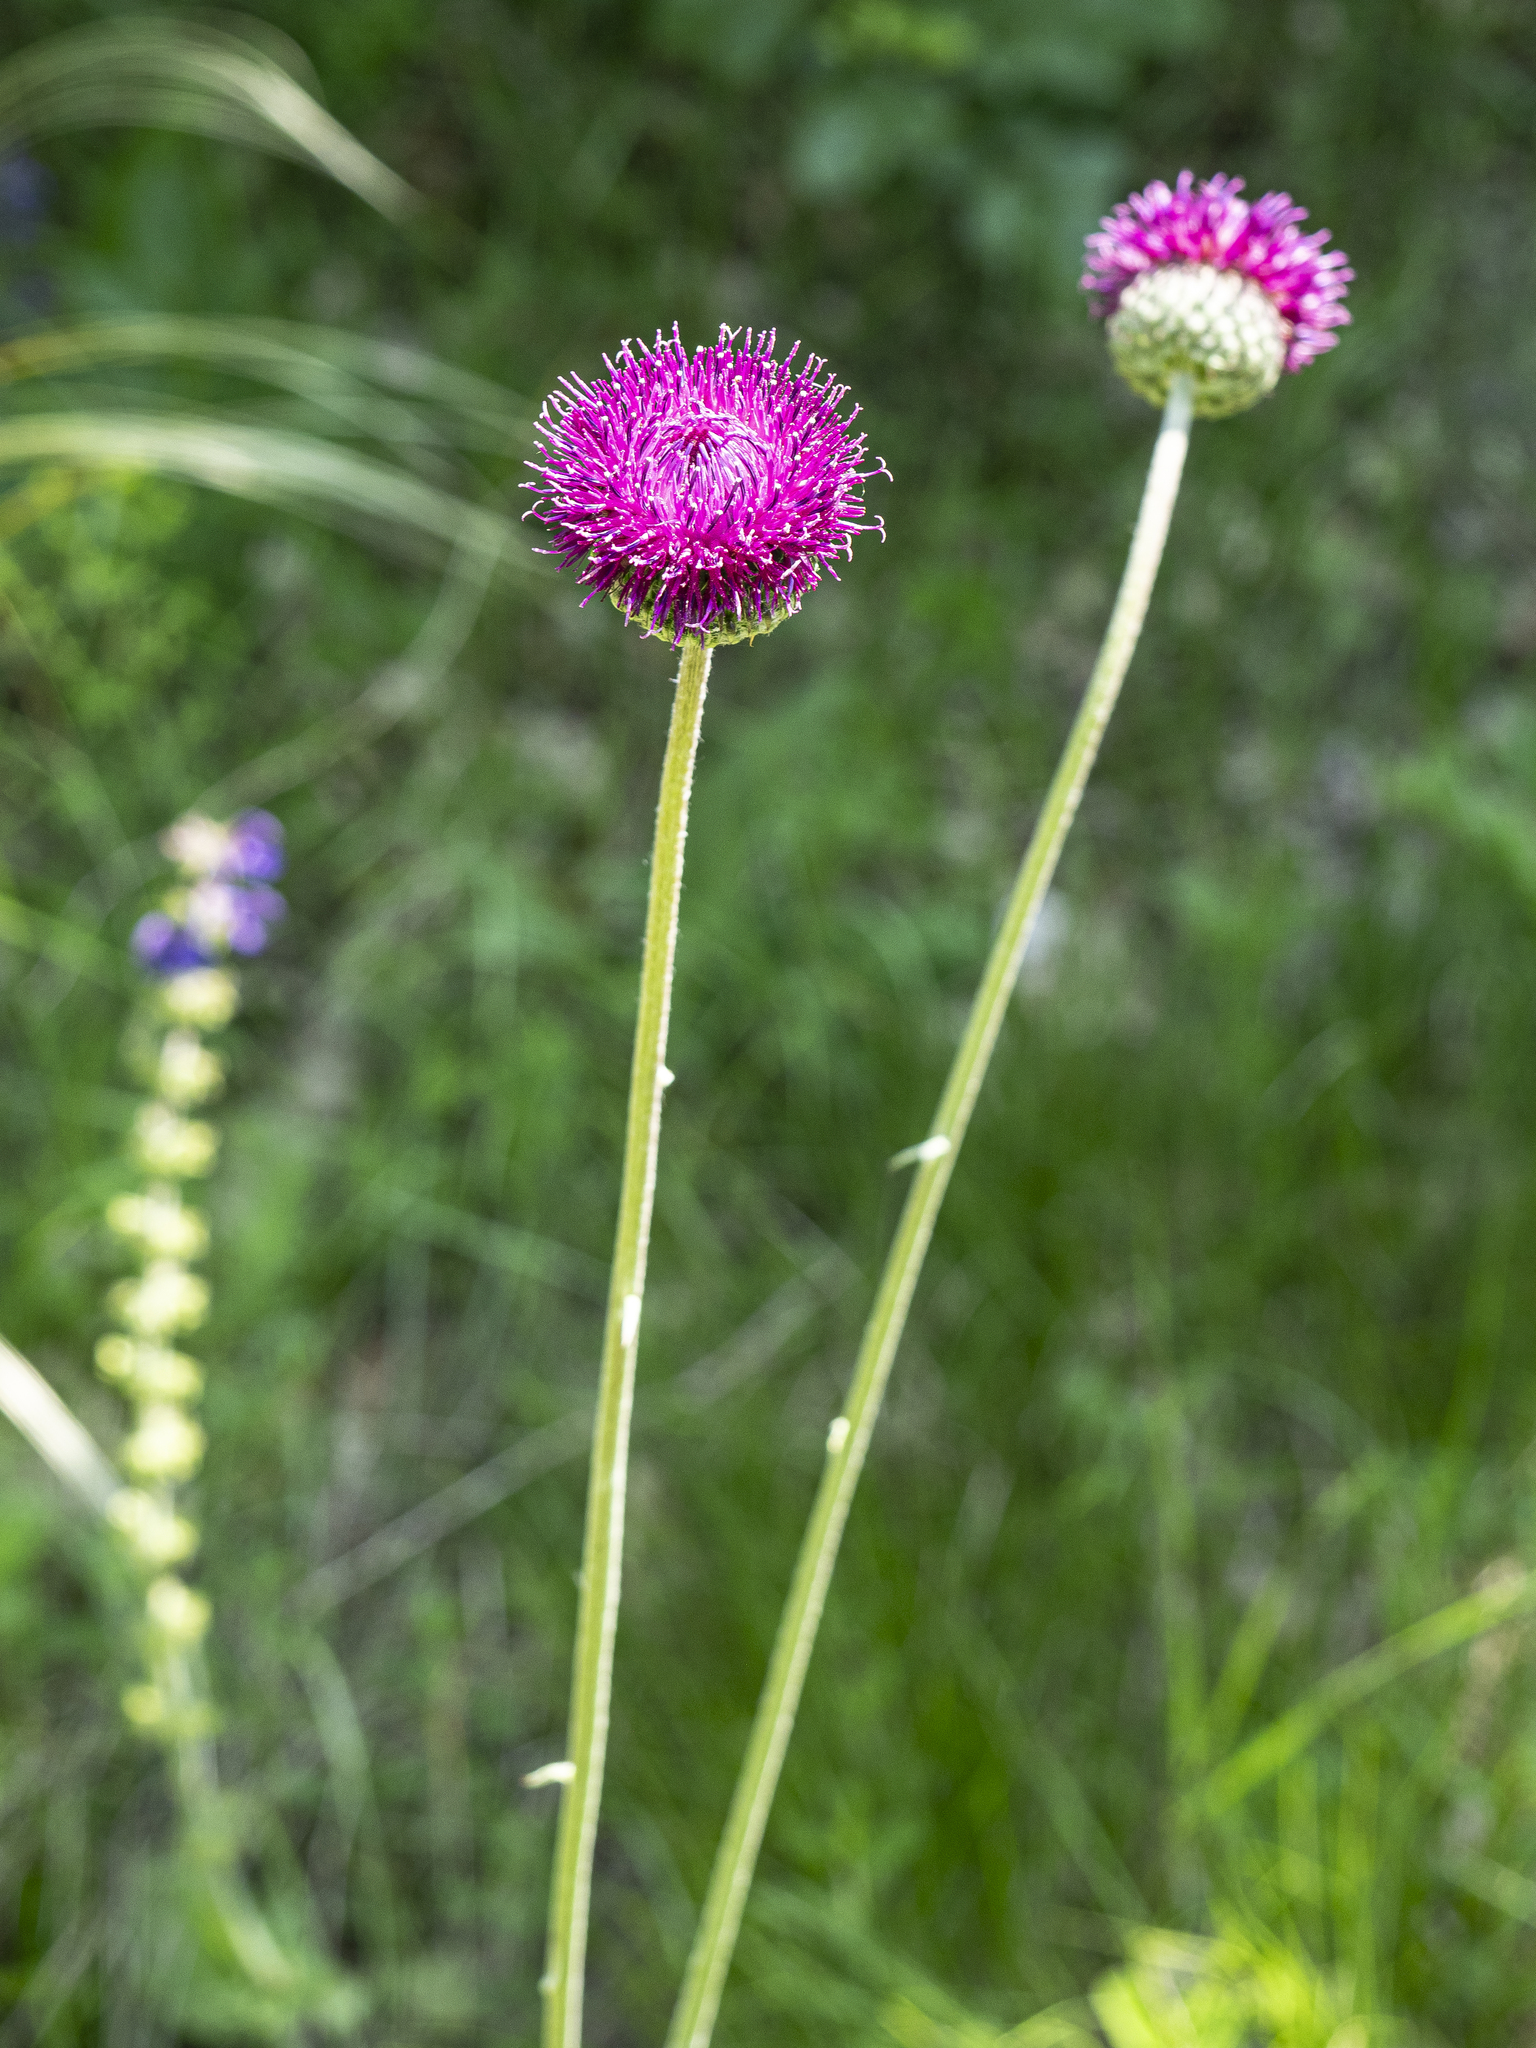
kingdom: Plantae
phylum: Tracheophyta
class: Magnoliopsida
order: Asterales
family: Asteraceae
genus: Jurinea
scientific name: Jurinea mollis
